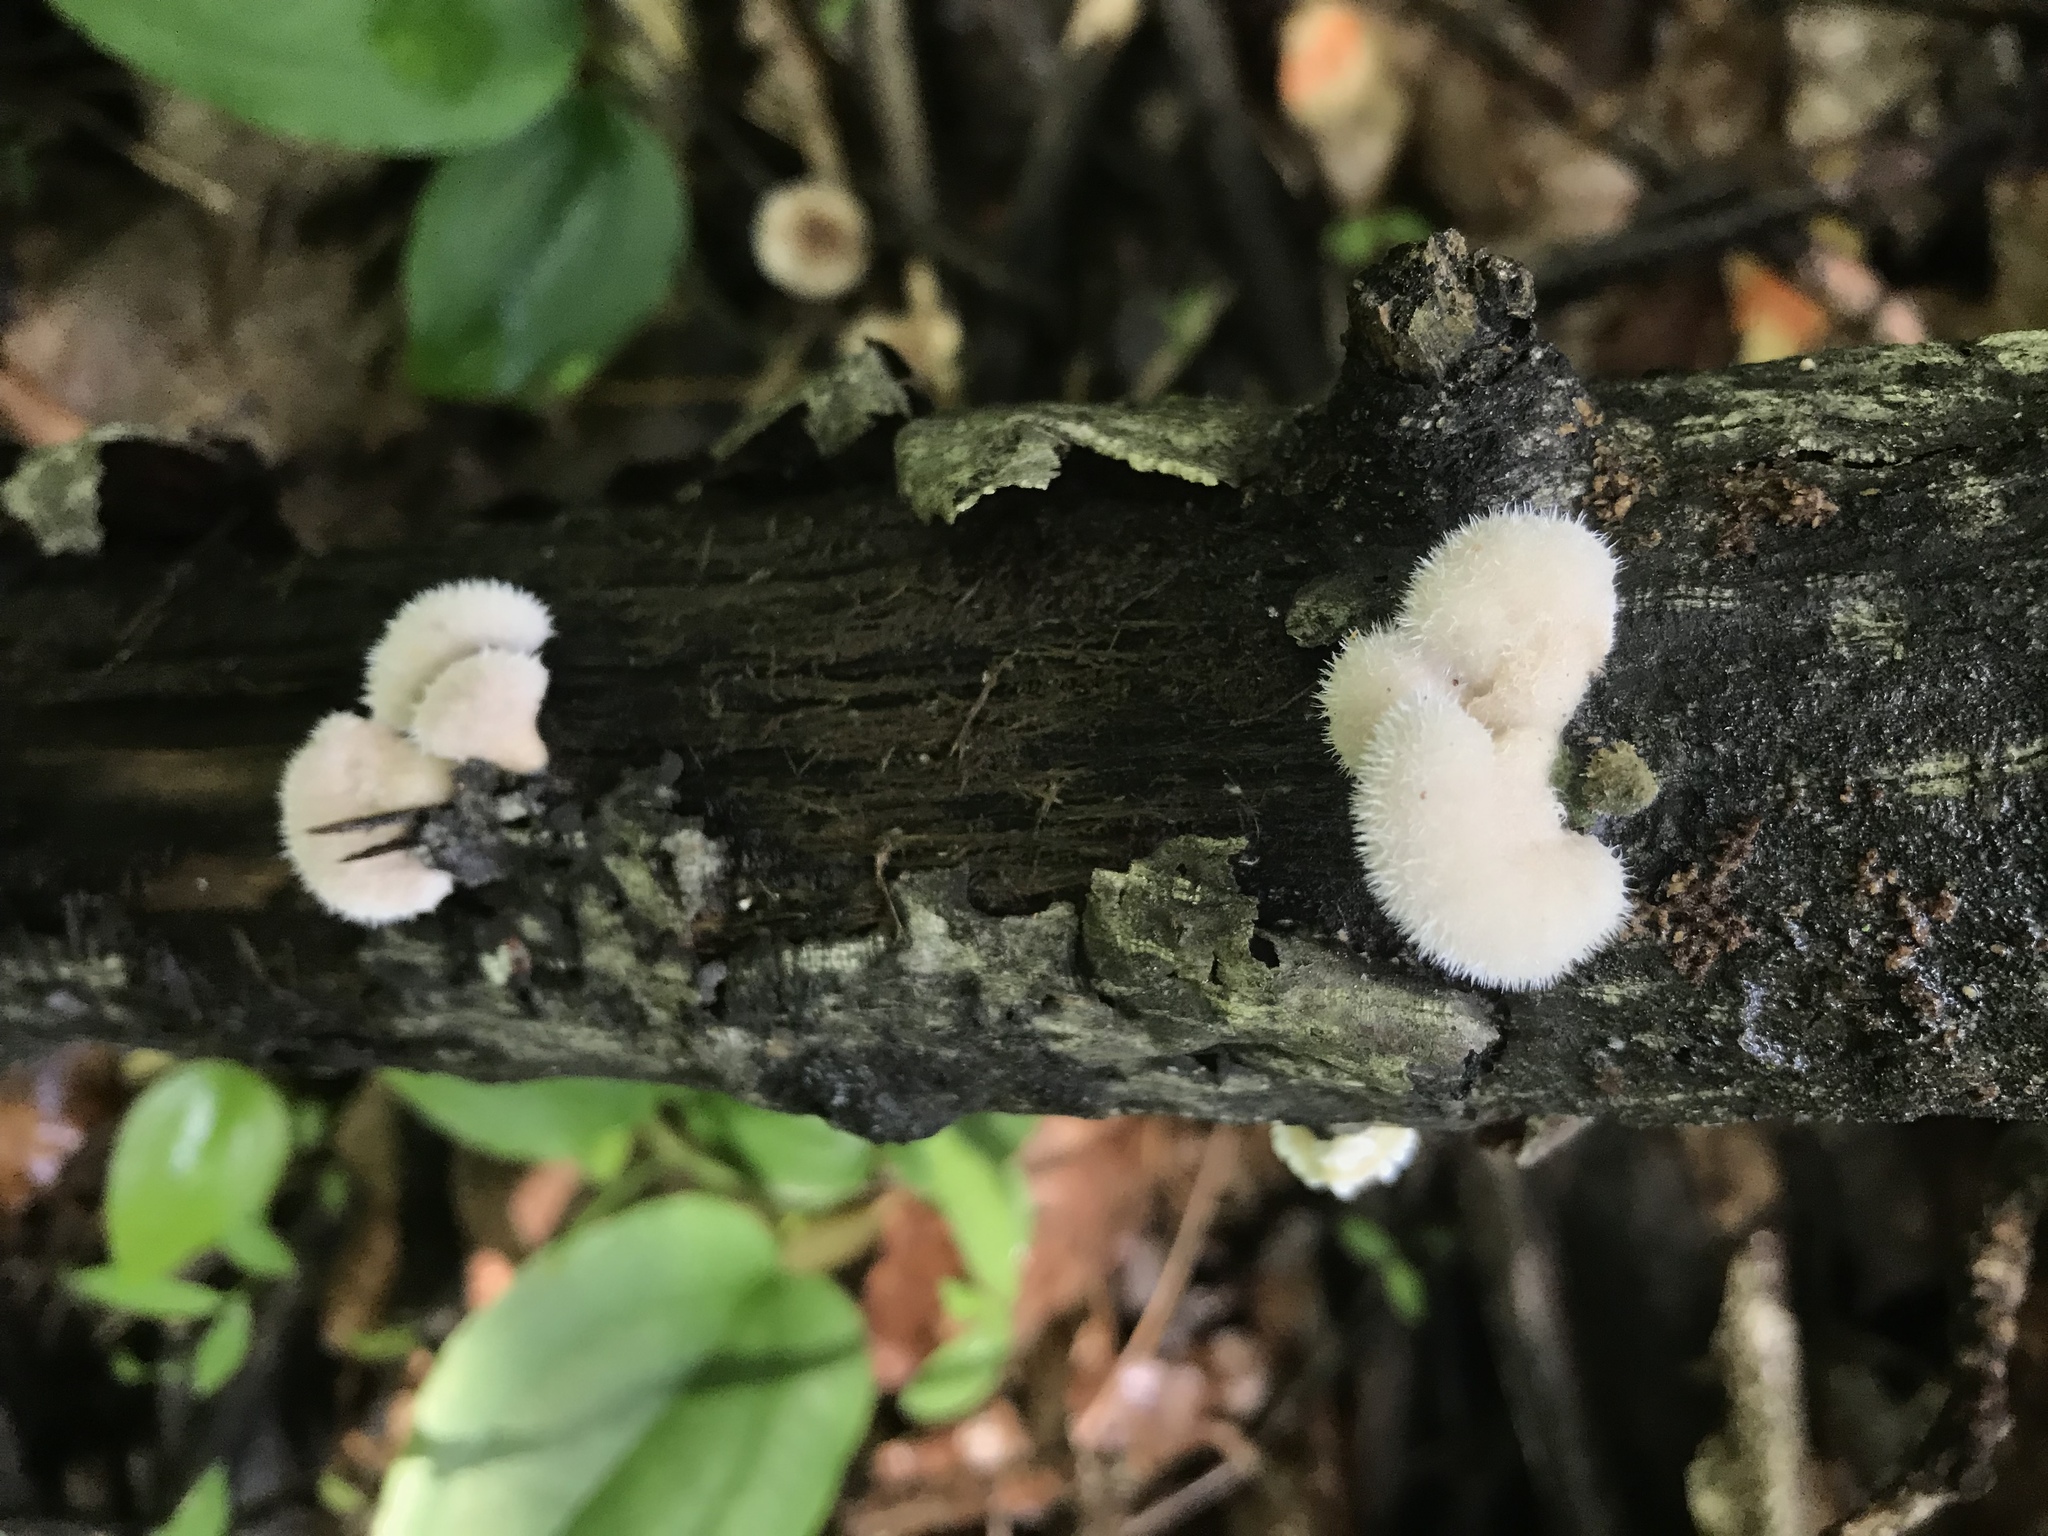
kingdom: Fungi
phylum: Basidiomycota
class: Agaricomycetes
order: Agaricales
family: Schizophyllaceae
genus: Schizophyllum
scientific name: Schizophyllum commune
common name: Common porecrust
